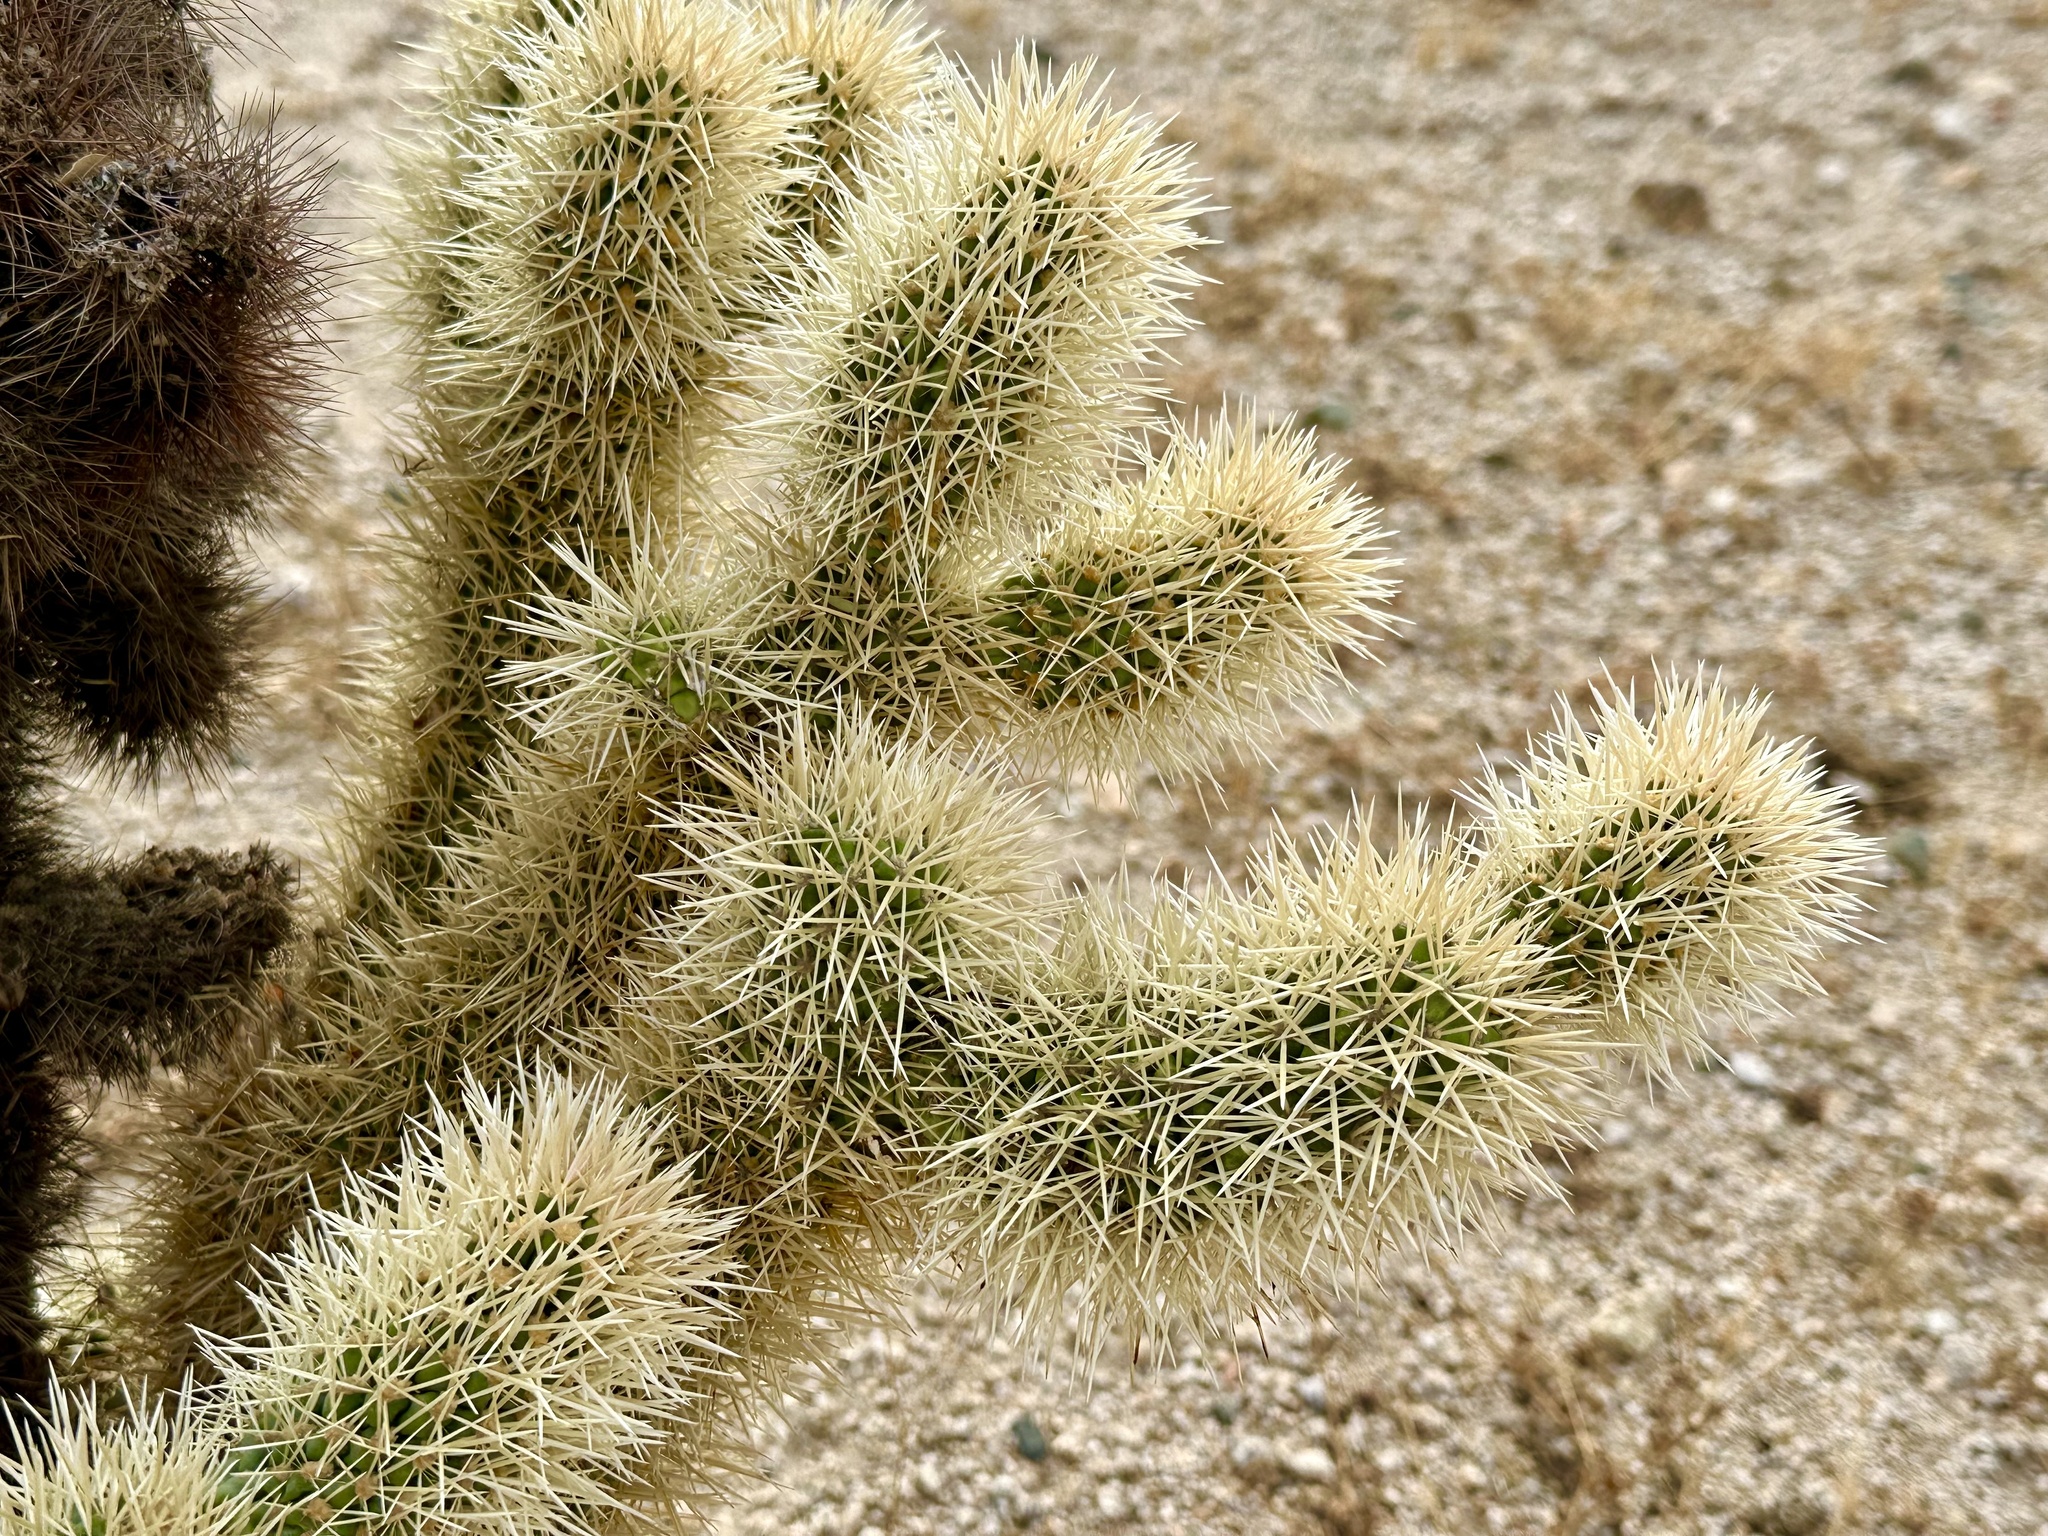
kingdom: Plantae
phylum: Tracheophyta
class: Magnoliopsida
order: Caryophyllales
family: Cactaceae
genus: Cylindropuntia
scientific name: Cylindropuntia fosbergii
